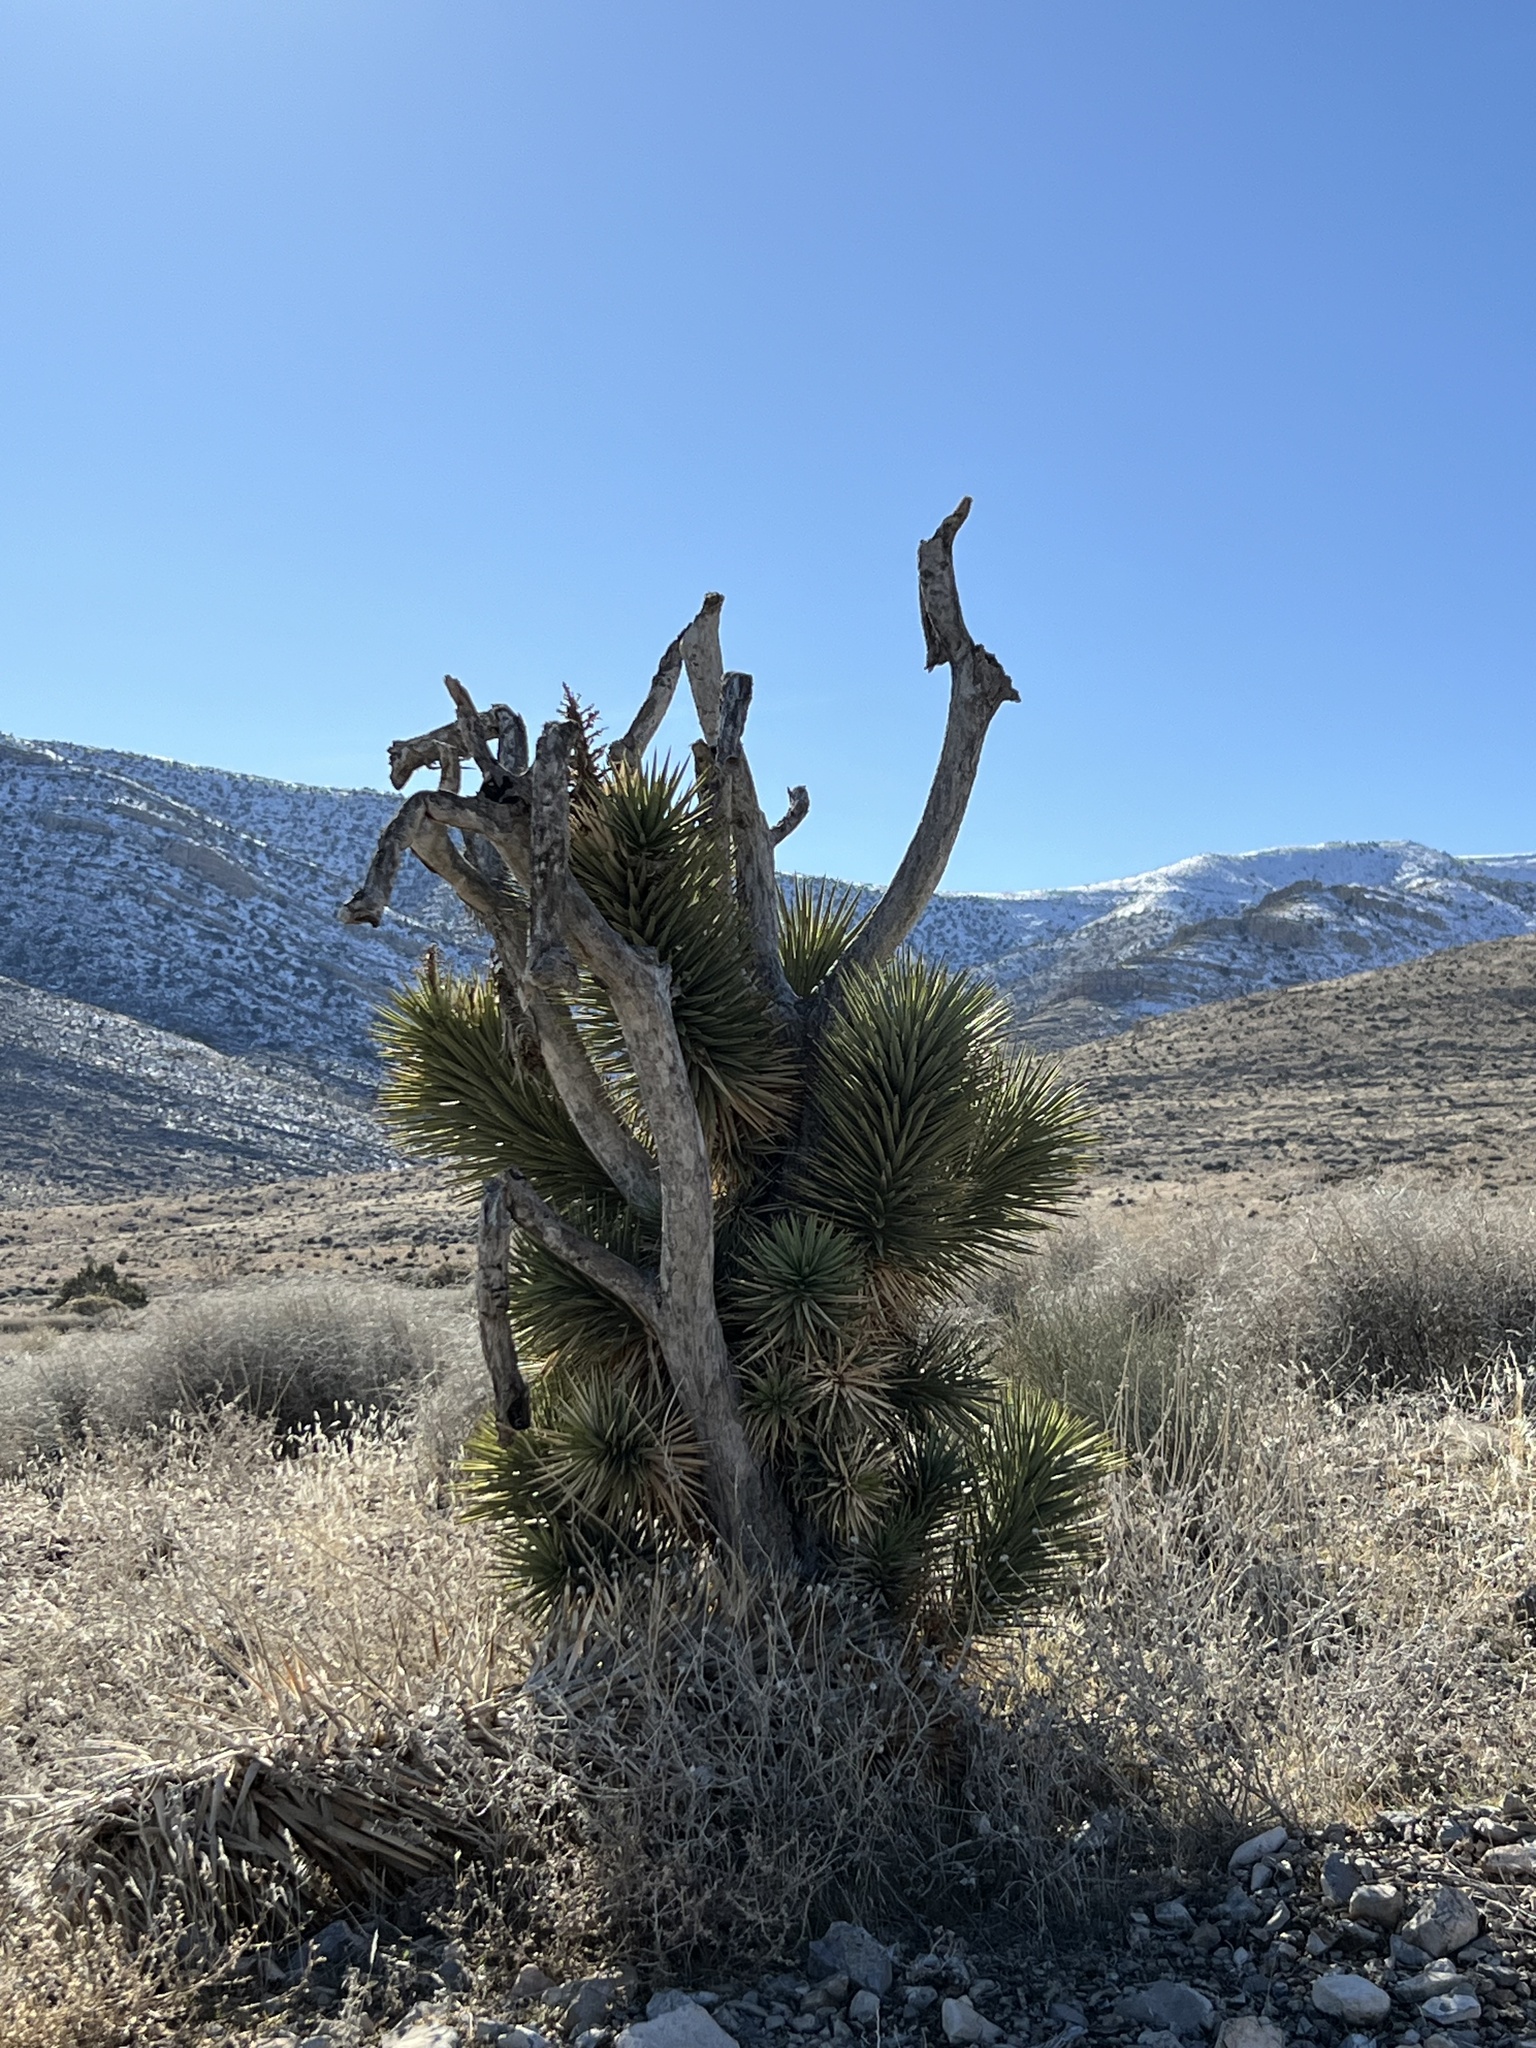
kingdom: Plantae
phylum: Tracheophyta
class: Liliopsida
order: Asparagales
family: Asparagaceae
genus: Yucca
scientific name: Yucca brevifolia
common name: Joshua tree
